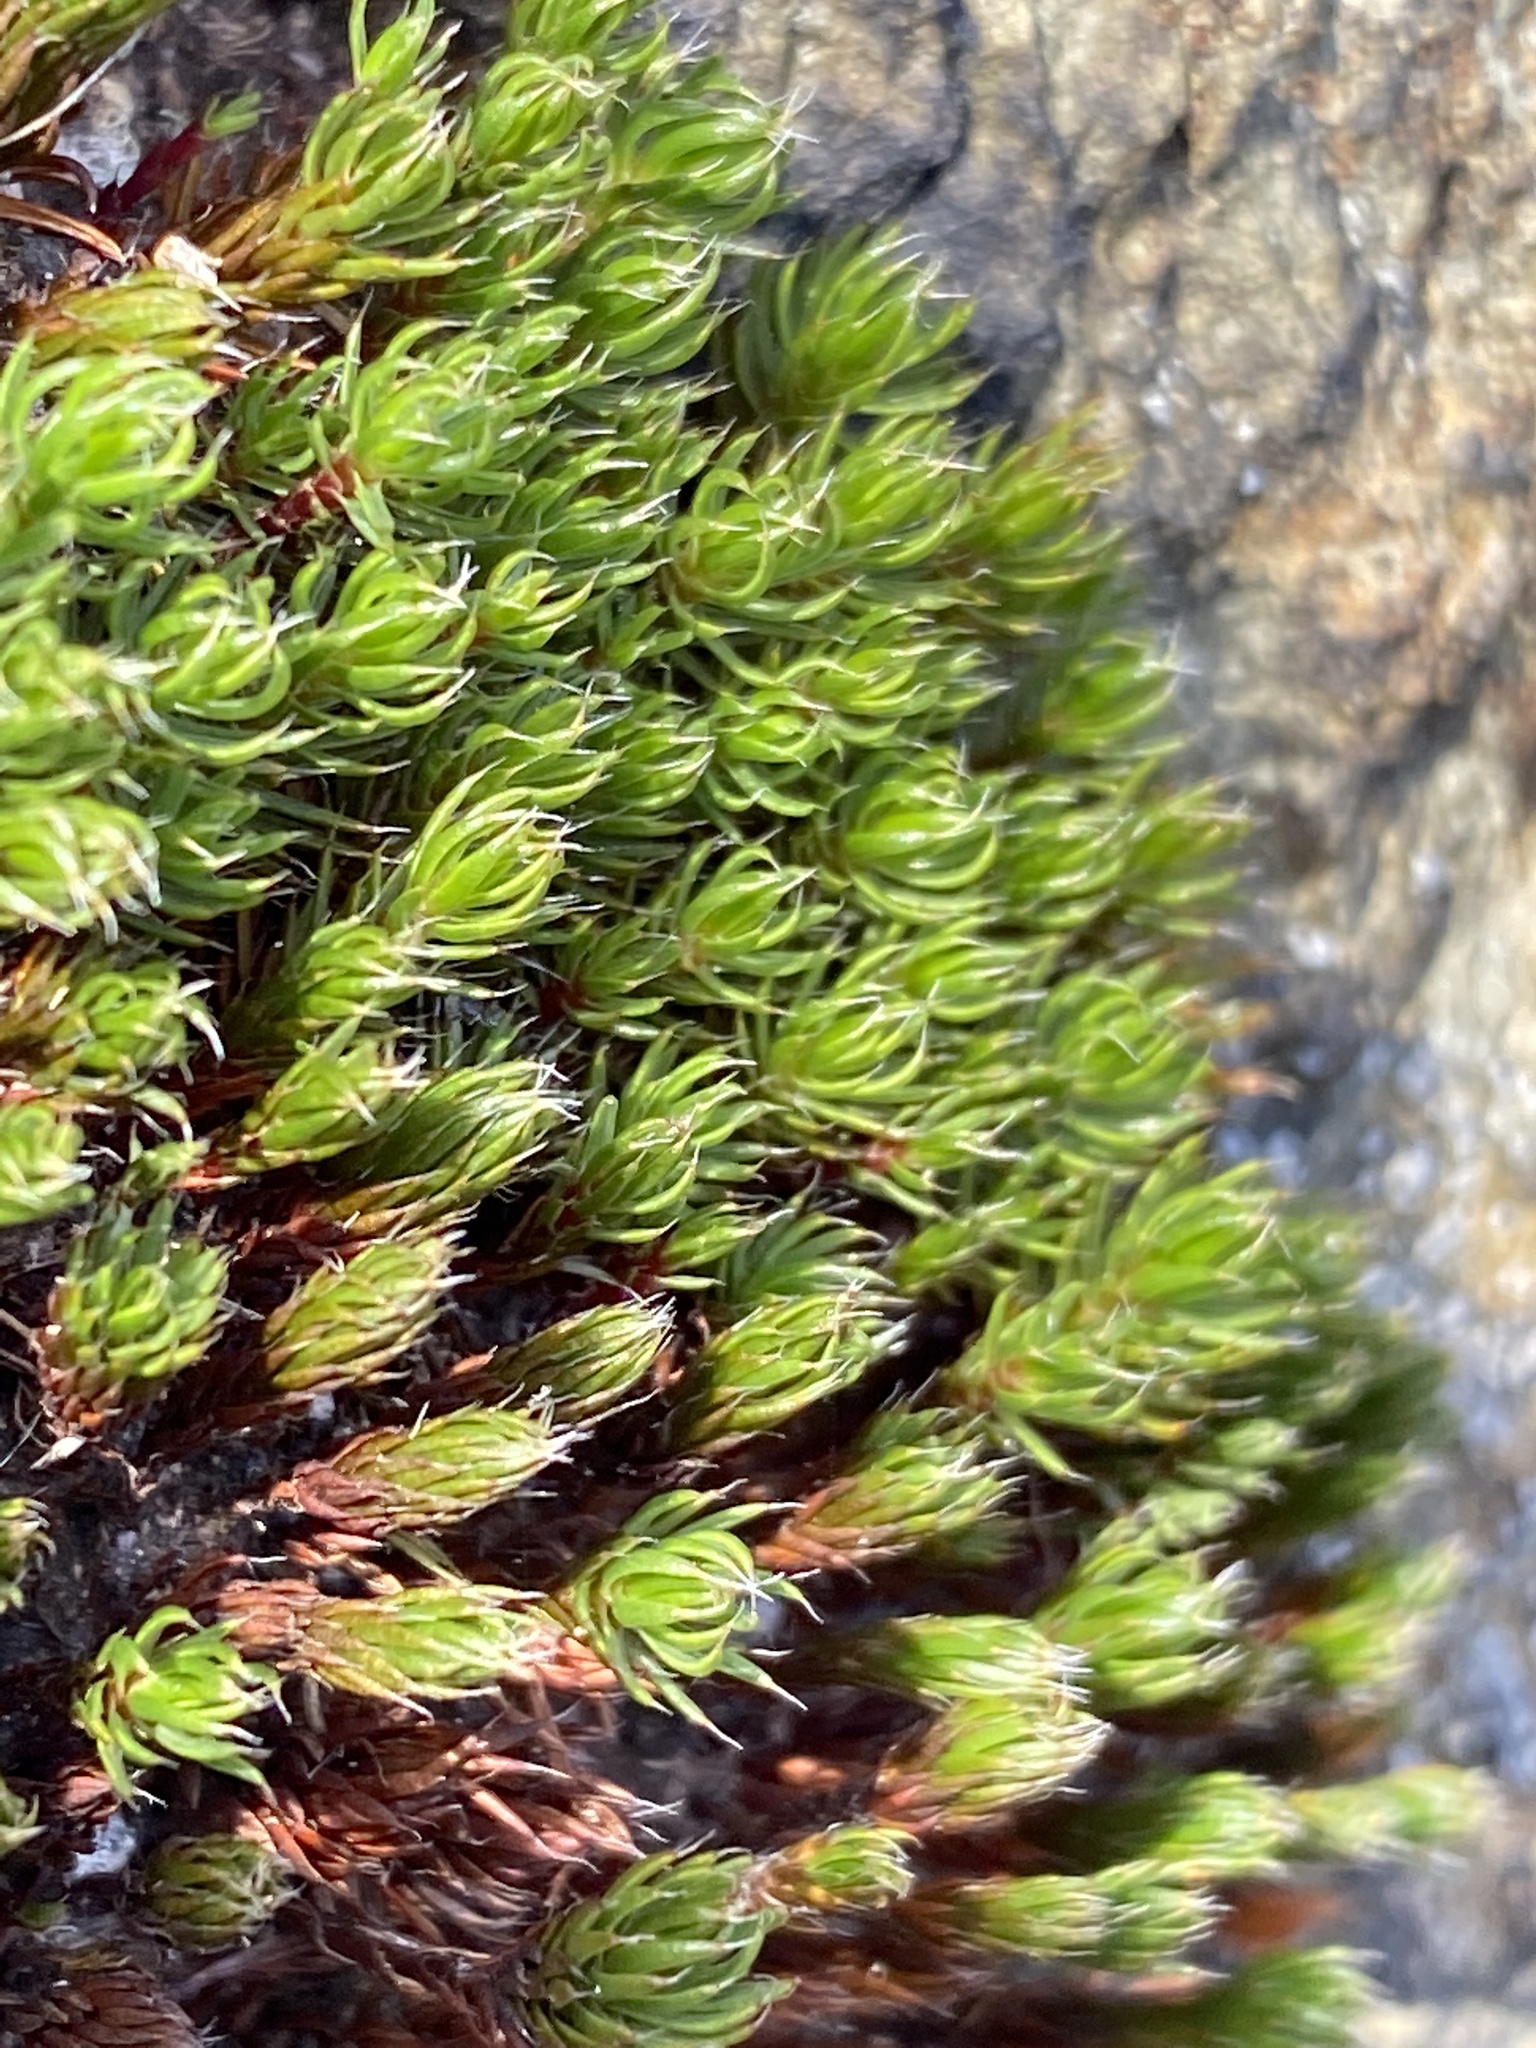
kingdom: Plantae
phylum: Bryophyta
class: Polytrichopsida
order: Polytrichales
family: Polytrichaceae
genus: Polytrichum
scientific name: Polytrichum piliferum
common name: Bristly haircap
